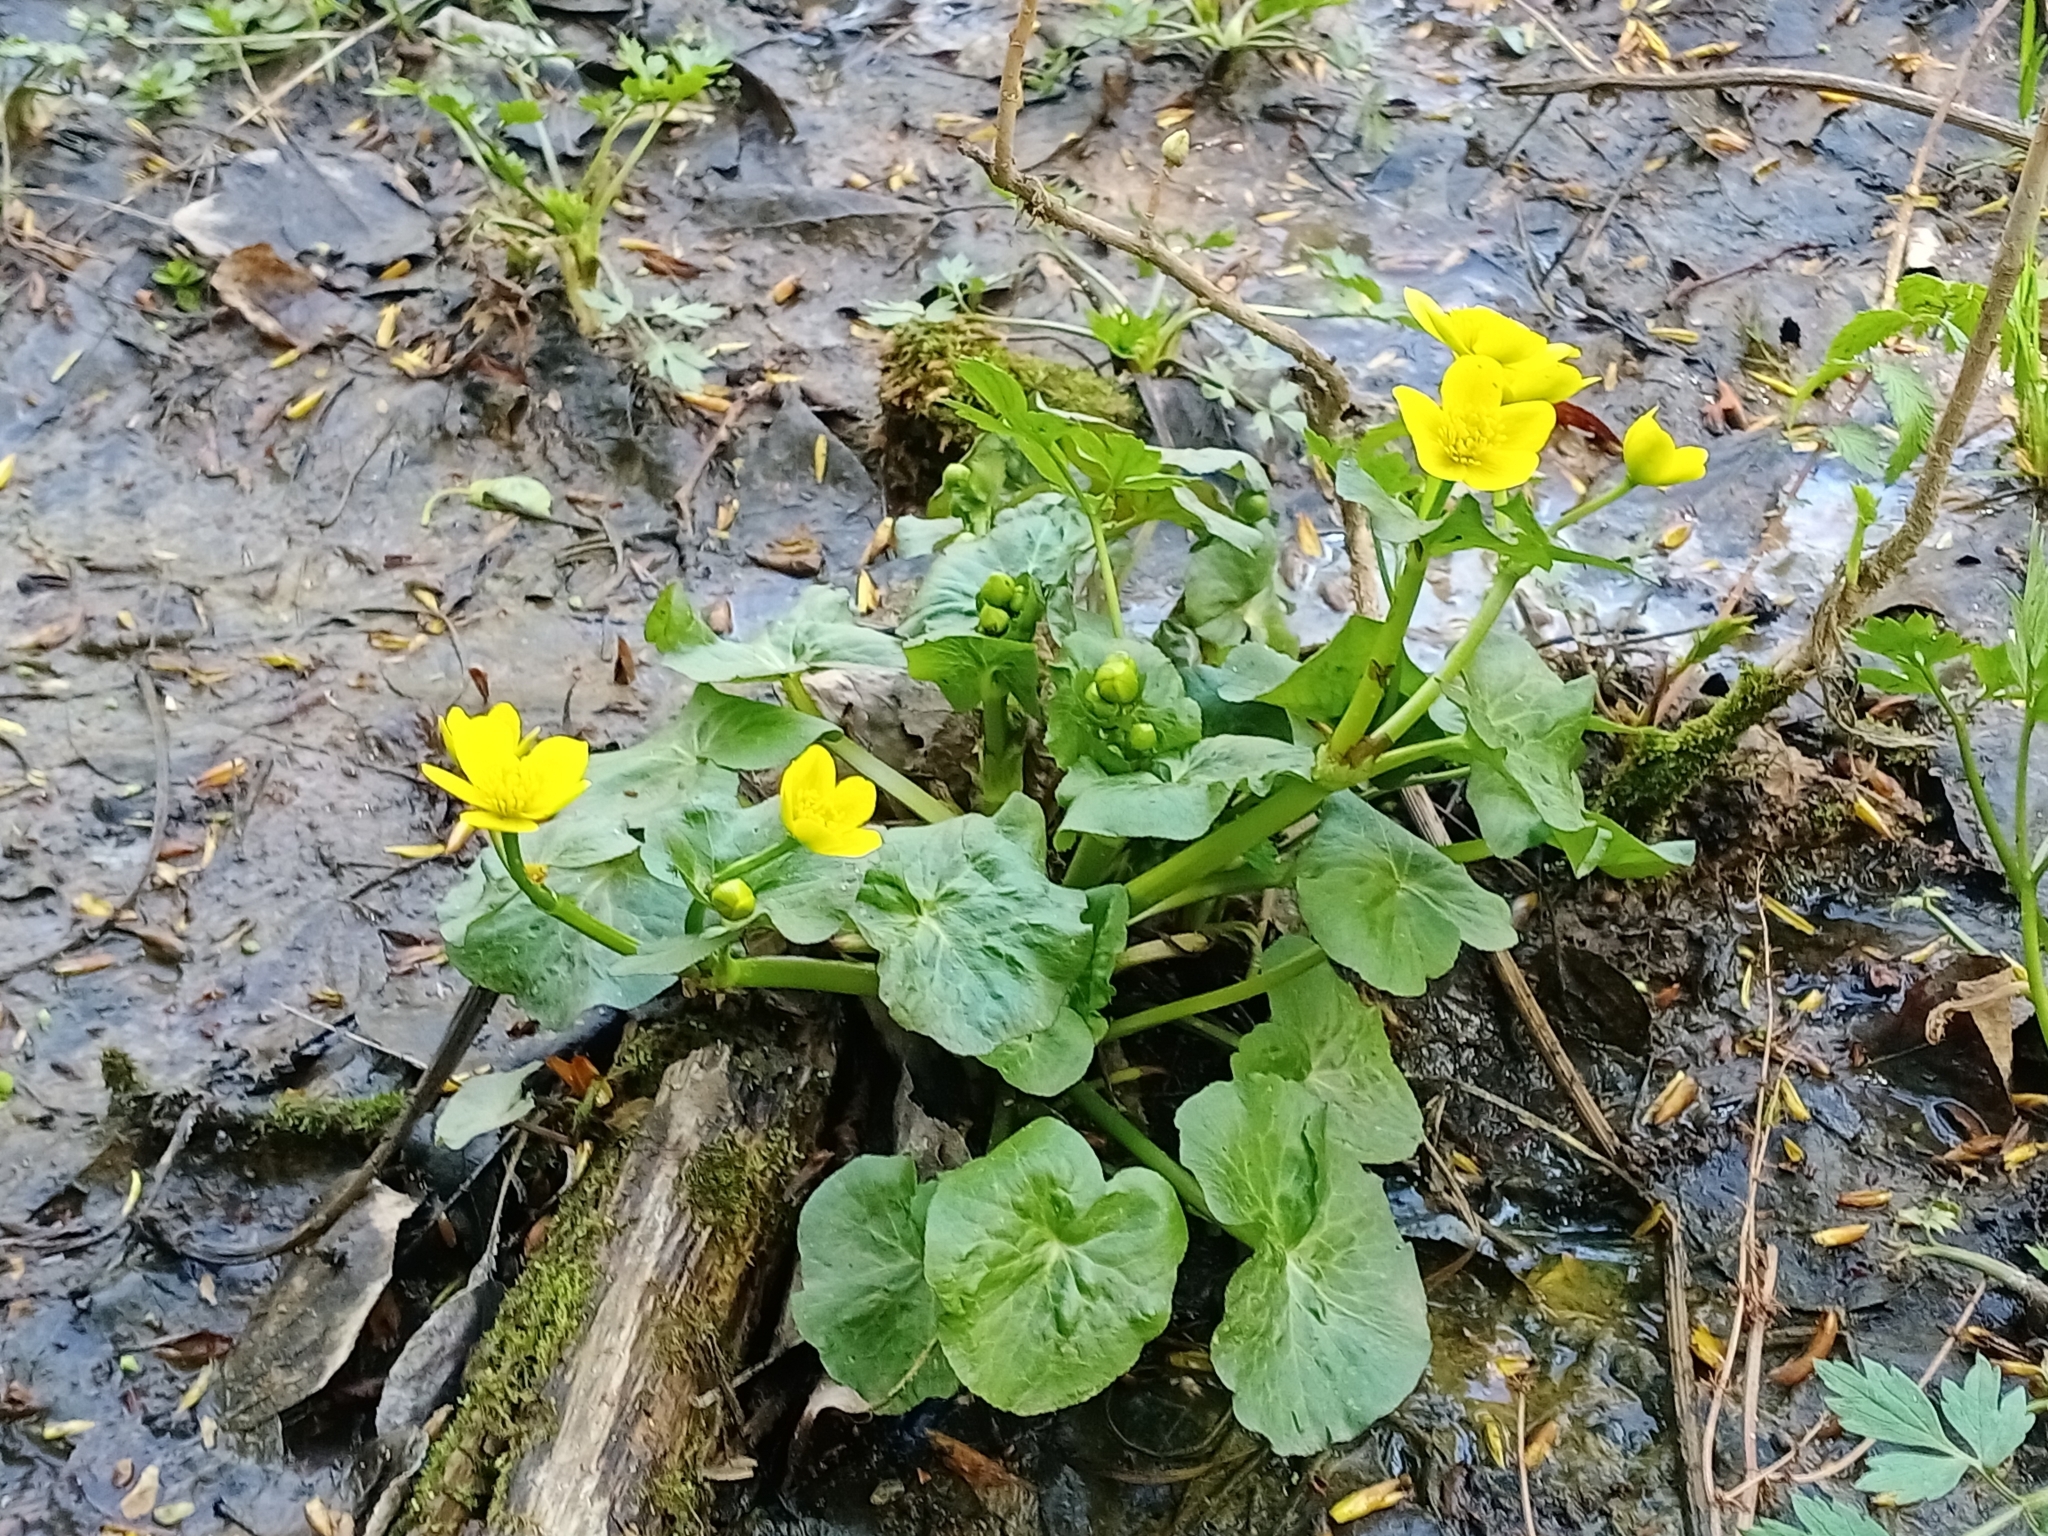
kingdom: Plantae
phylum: Tracheophyta
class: Magnoliopsida
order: Ranunculales
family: Ranunculaceae
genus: Caltha
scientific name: Caltha palustris
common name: Marsh marigold
